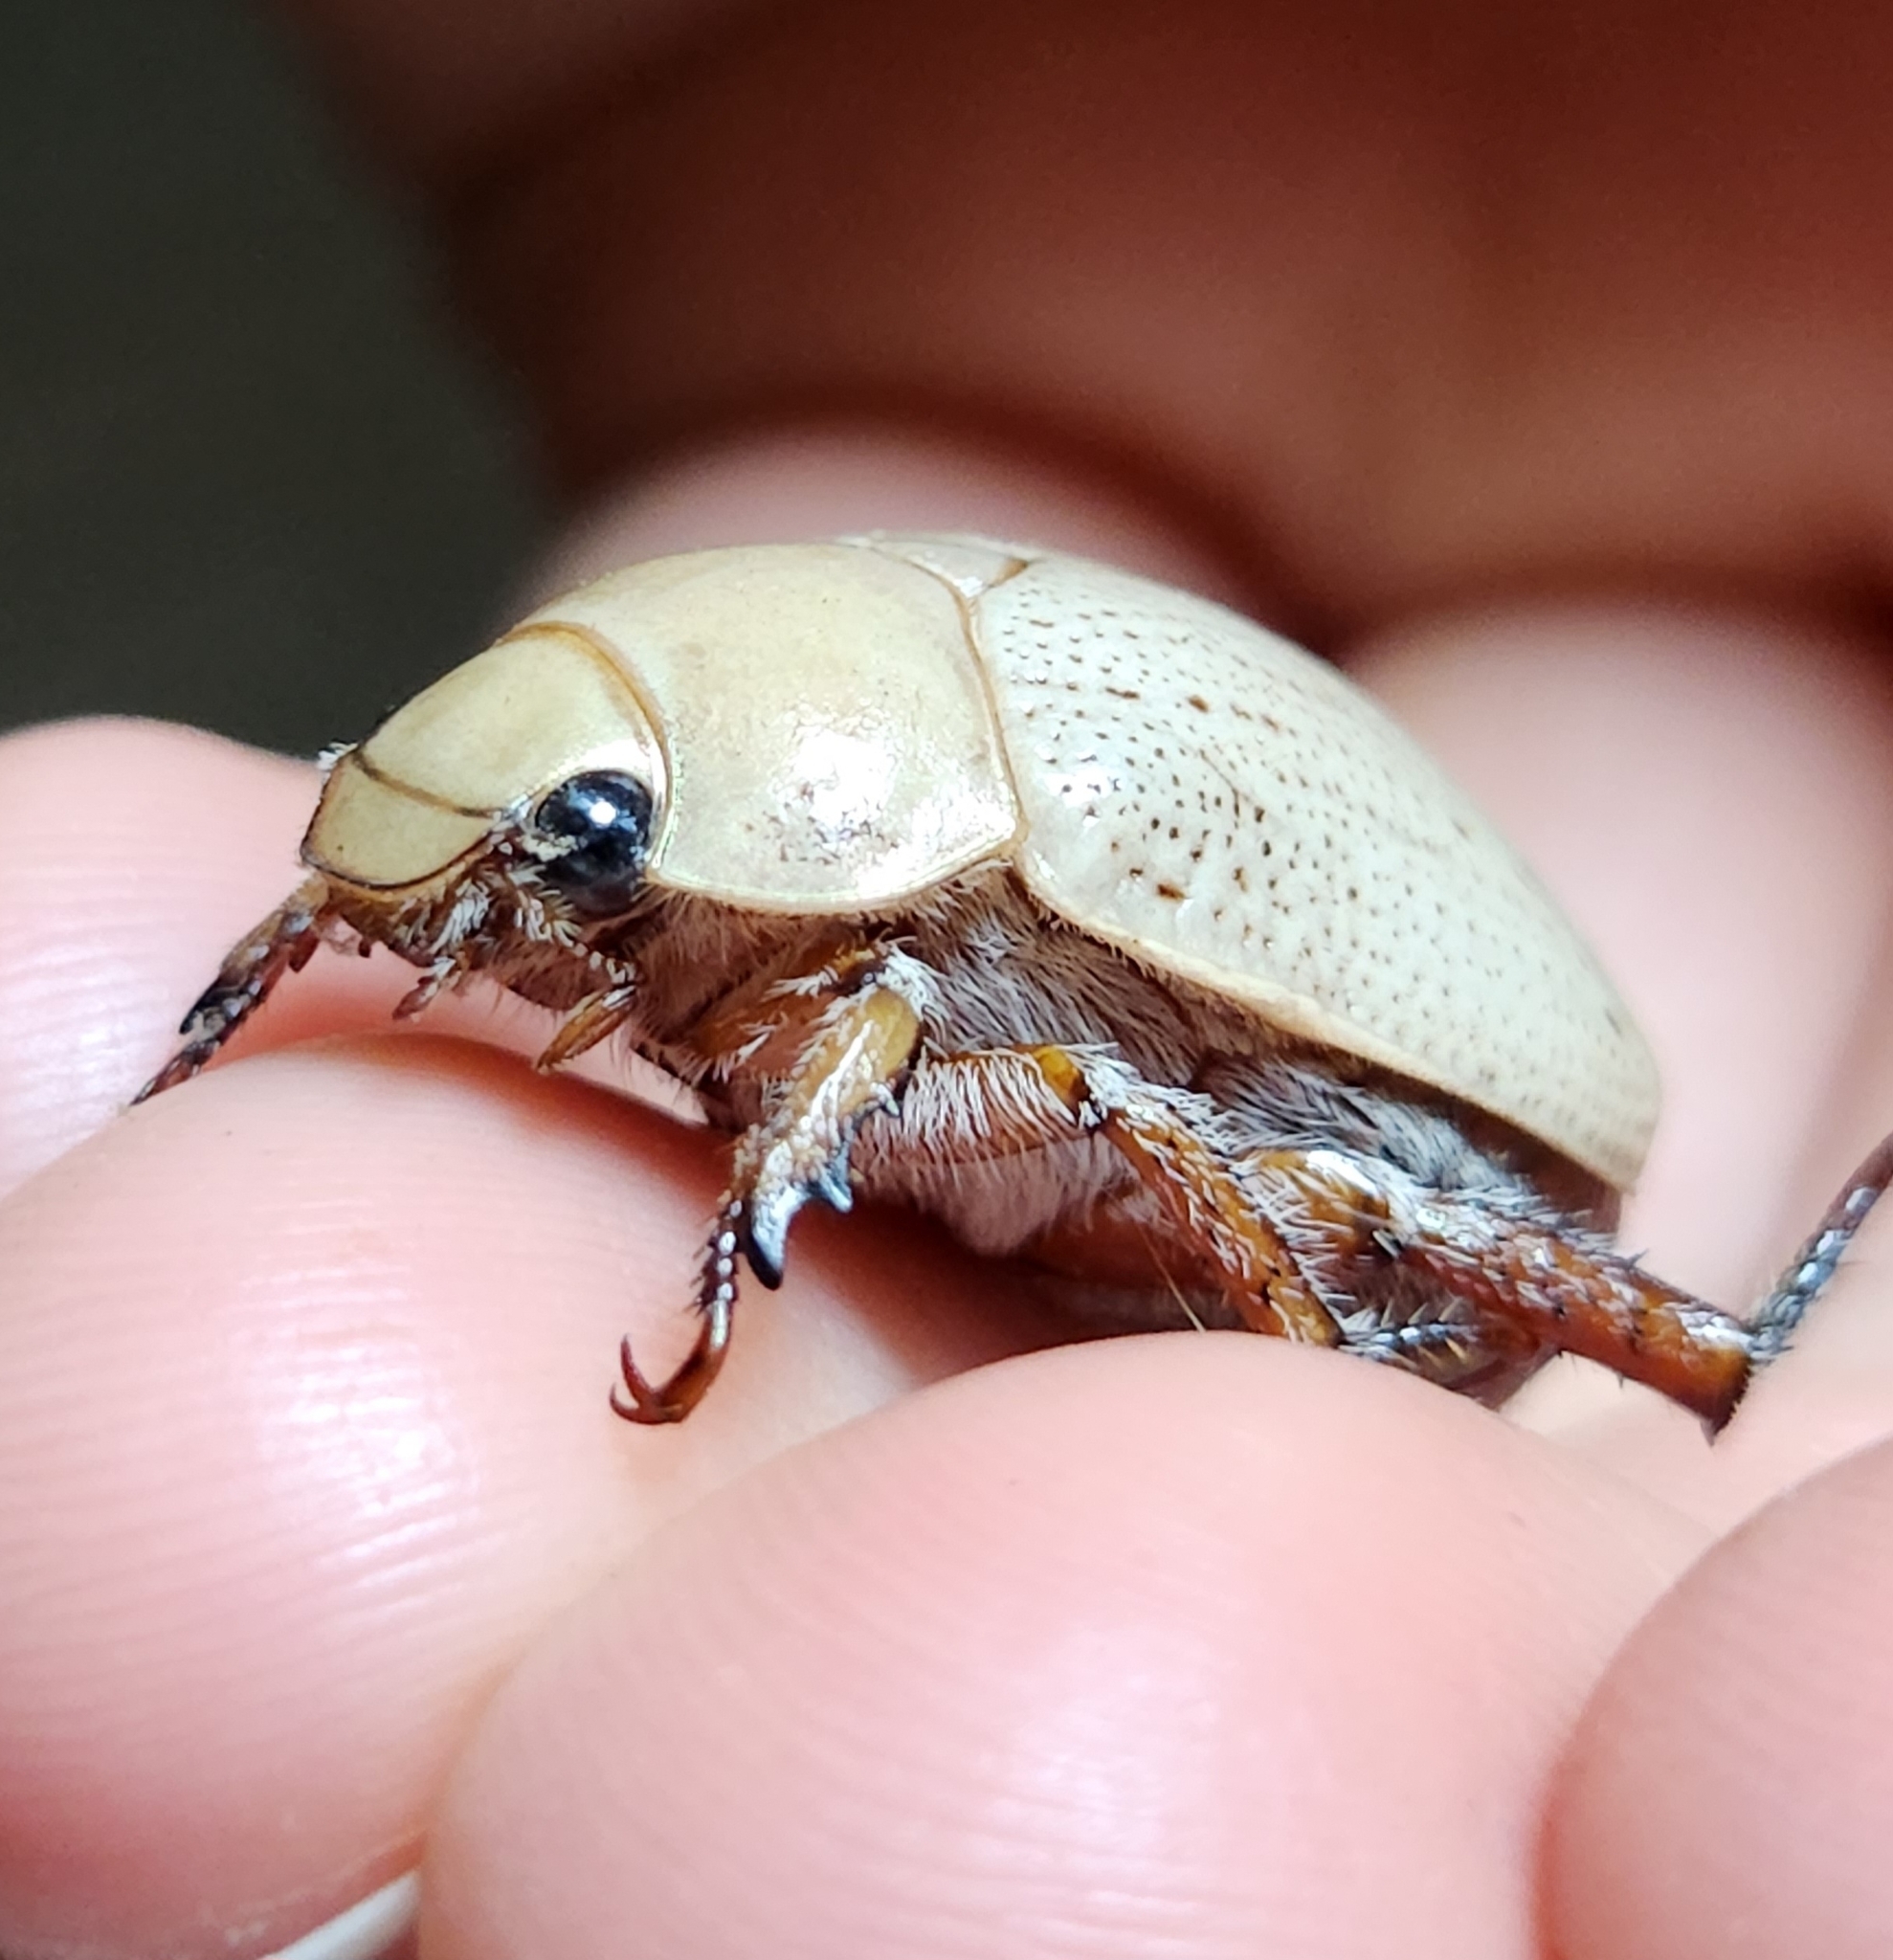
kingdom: Animalia
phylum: Arthropoda
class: Insecta
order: Coleoptera
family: Scarabaeidae
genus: Anoplognathus
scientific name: Anoplognathus pallidicollis
